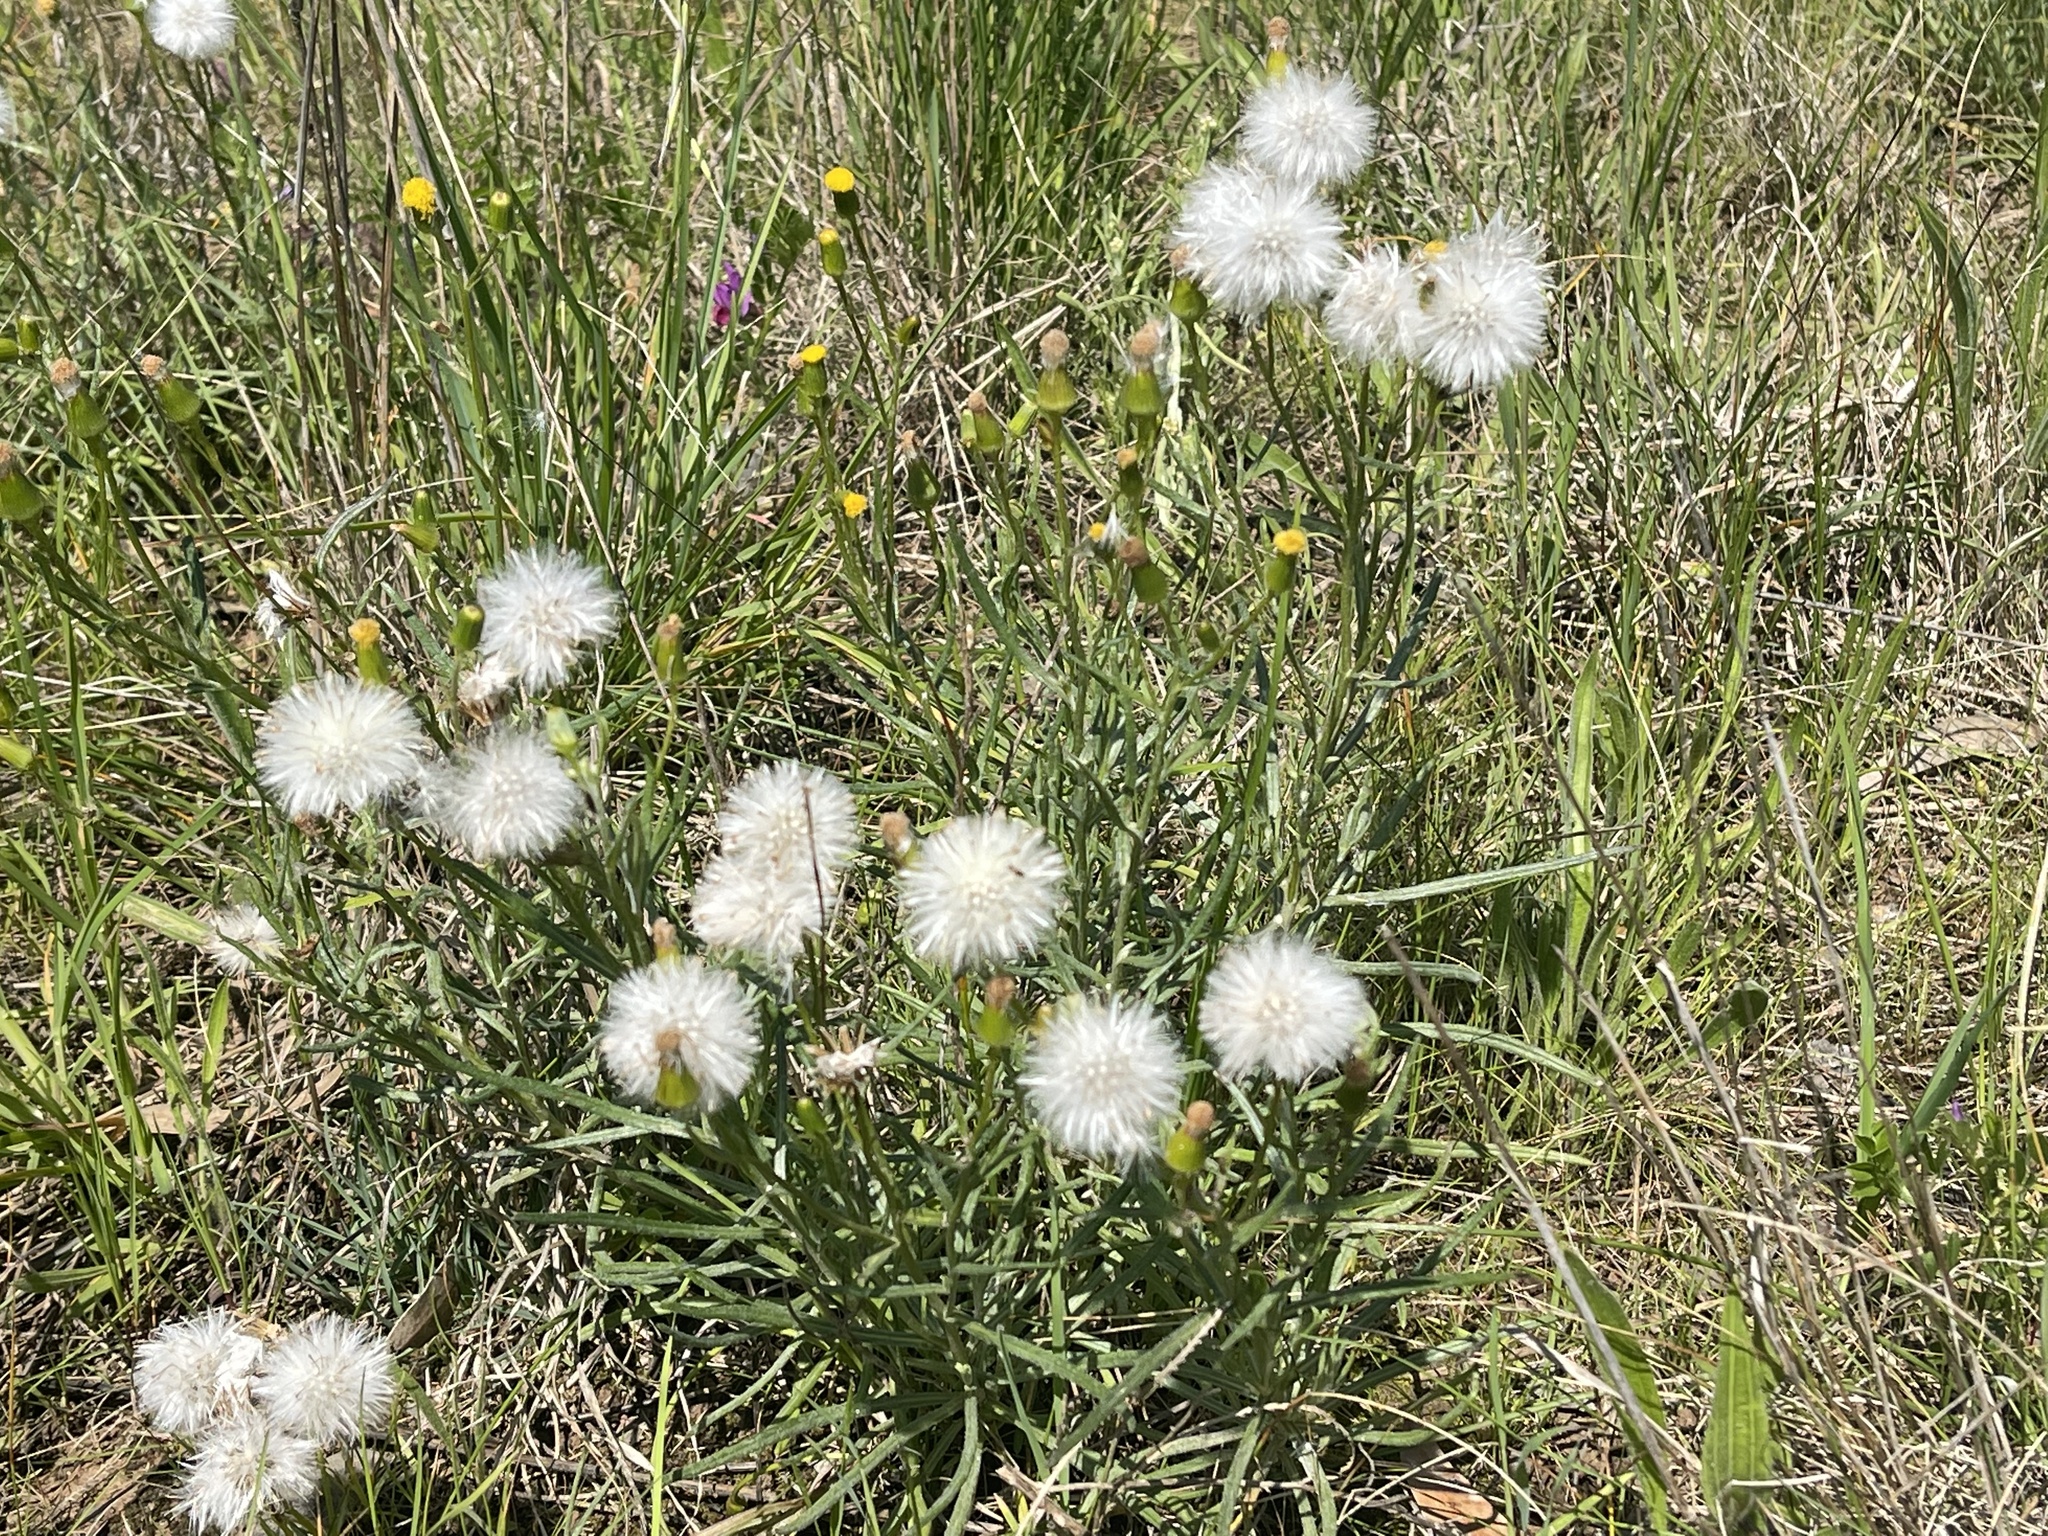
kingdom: Plantae
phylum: Tracheophyta
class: Magnoliopsida
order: Asterales
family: Asteraceae
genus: Senecio
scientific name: Senecio macrocarpus
